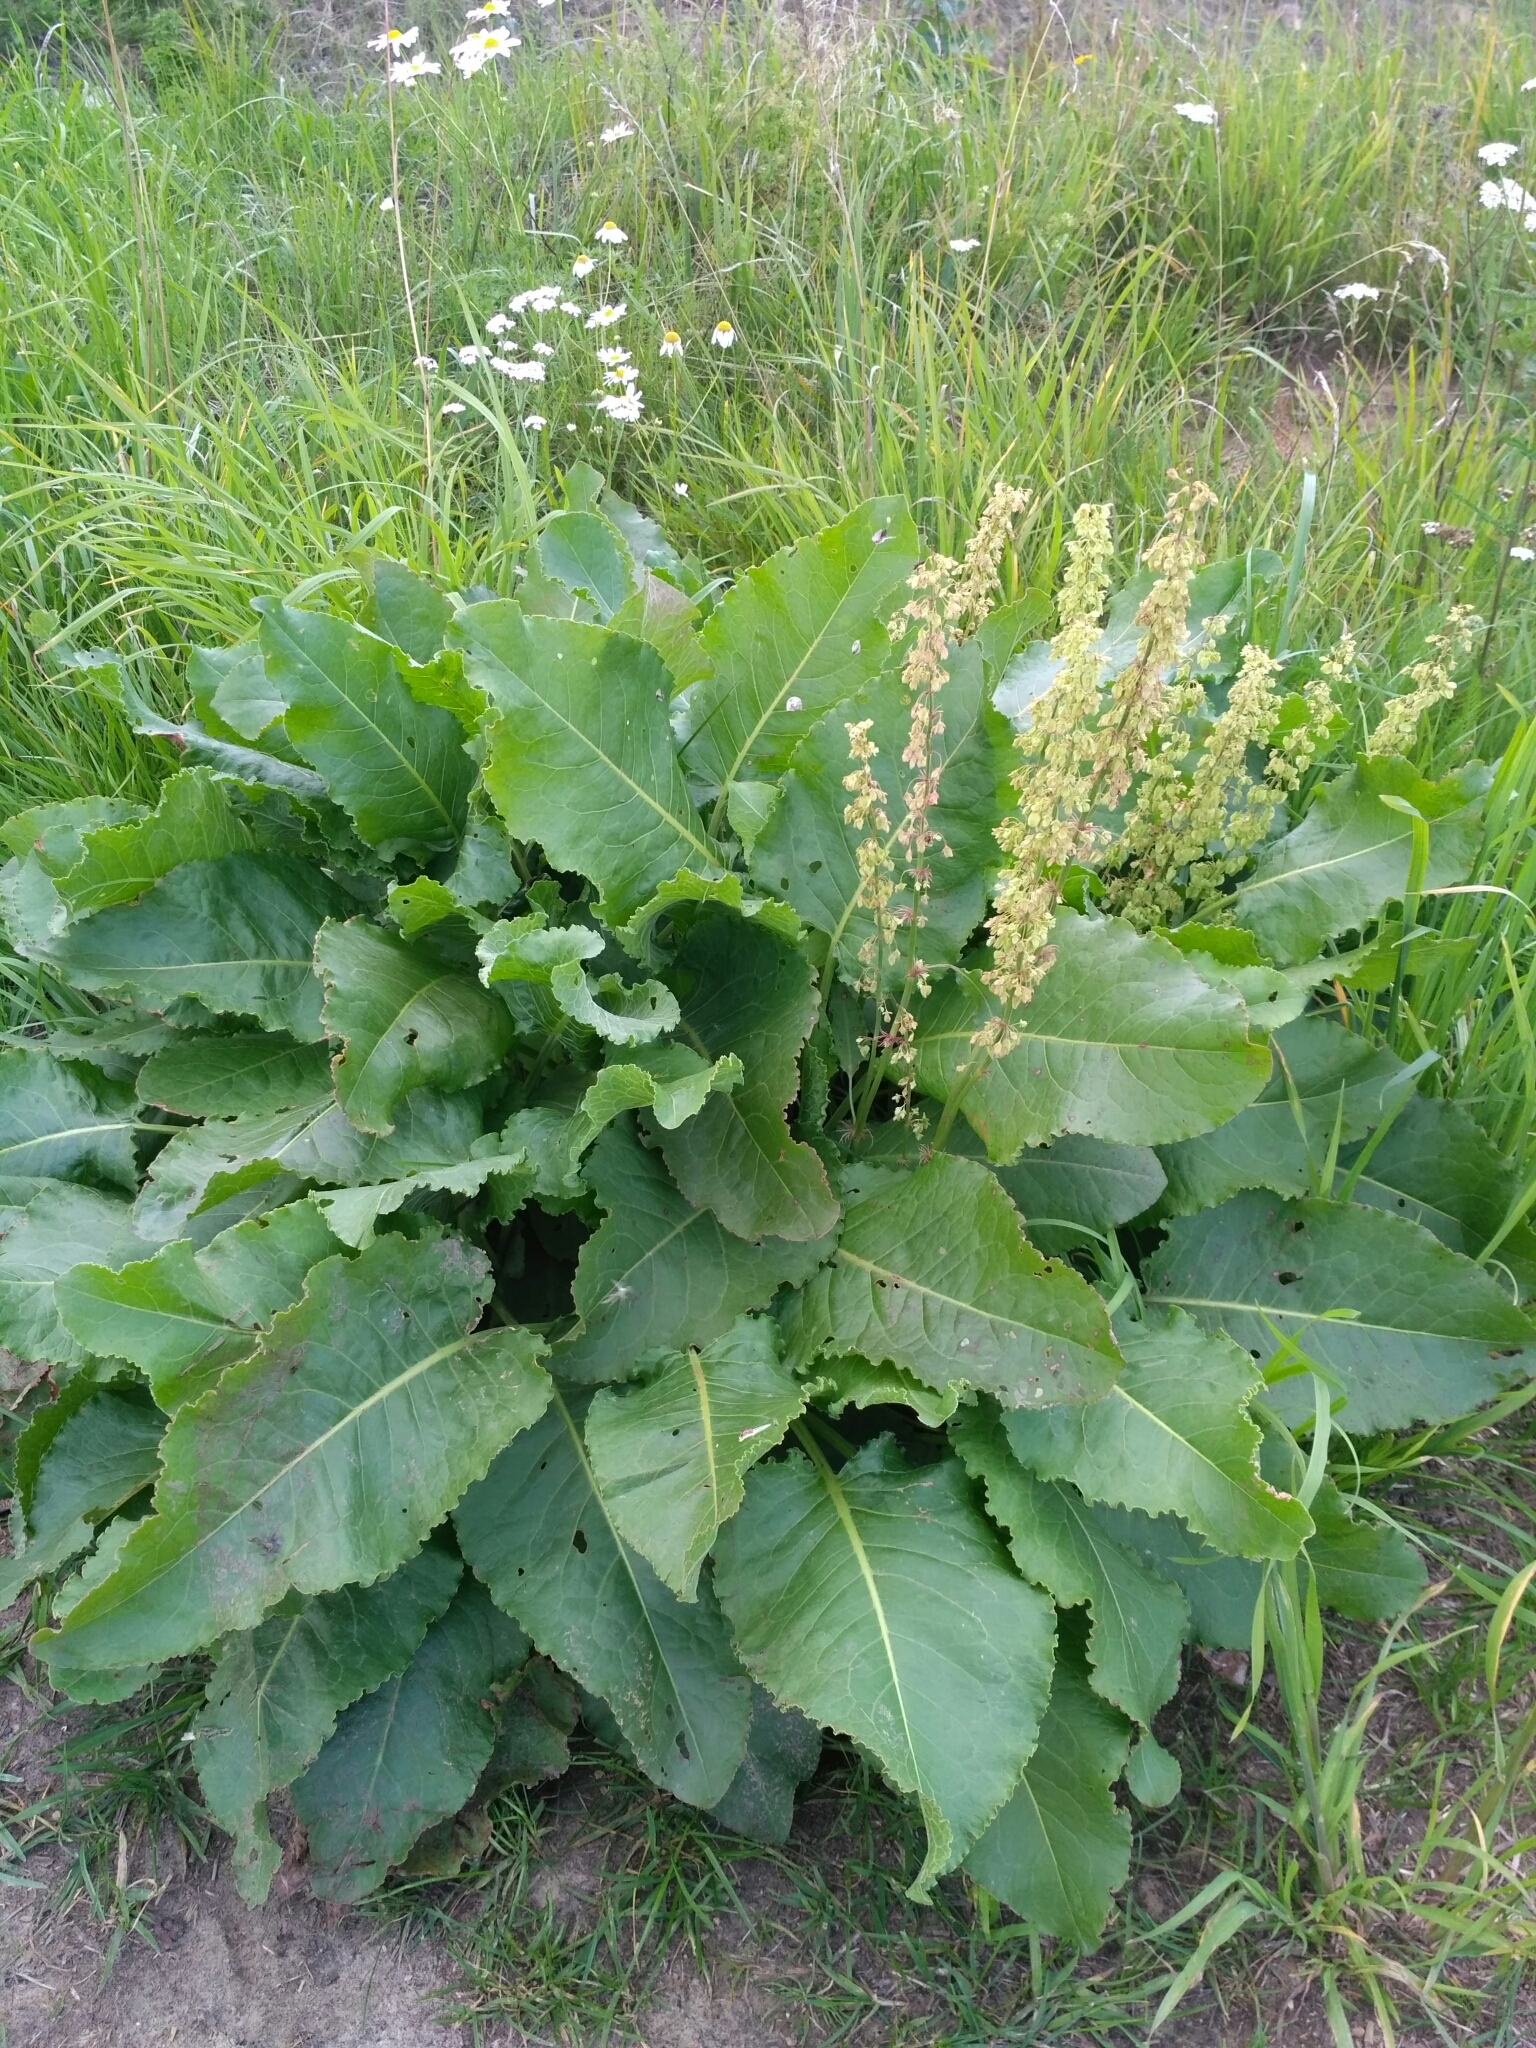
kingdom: Plantae
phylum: Tracheophyta
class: Magnoliopsida
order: Caryophyllales
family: Polygonaceae
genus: Rumex
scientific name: Rumex confertus
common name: Russian dock
